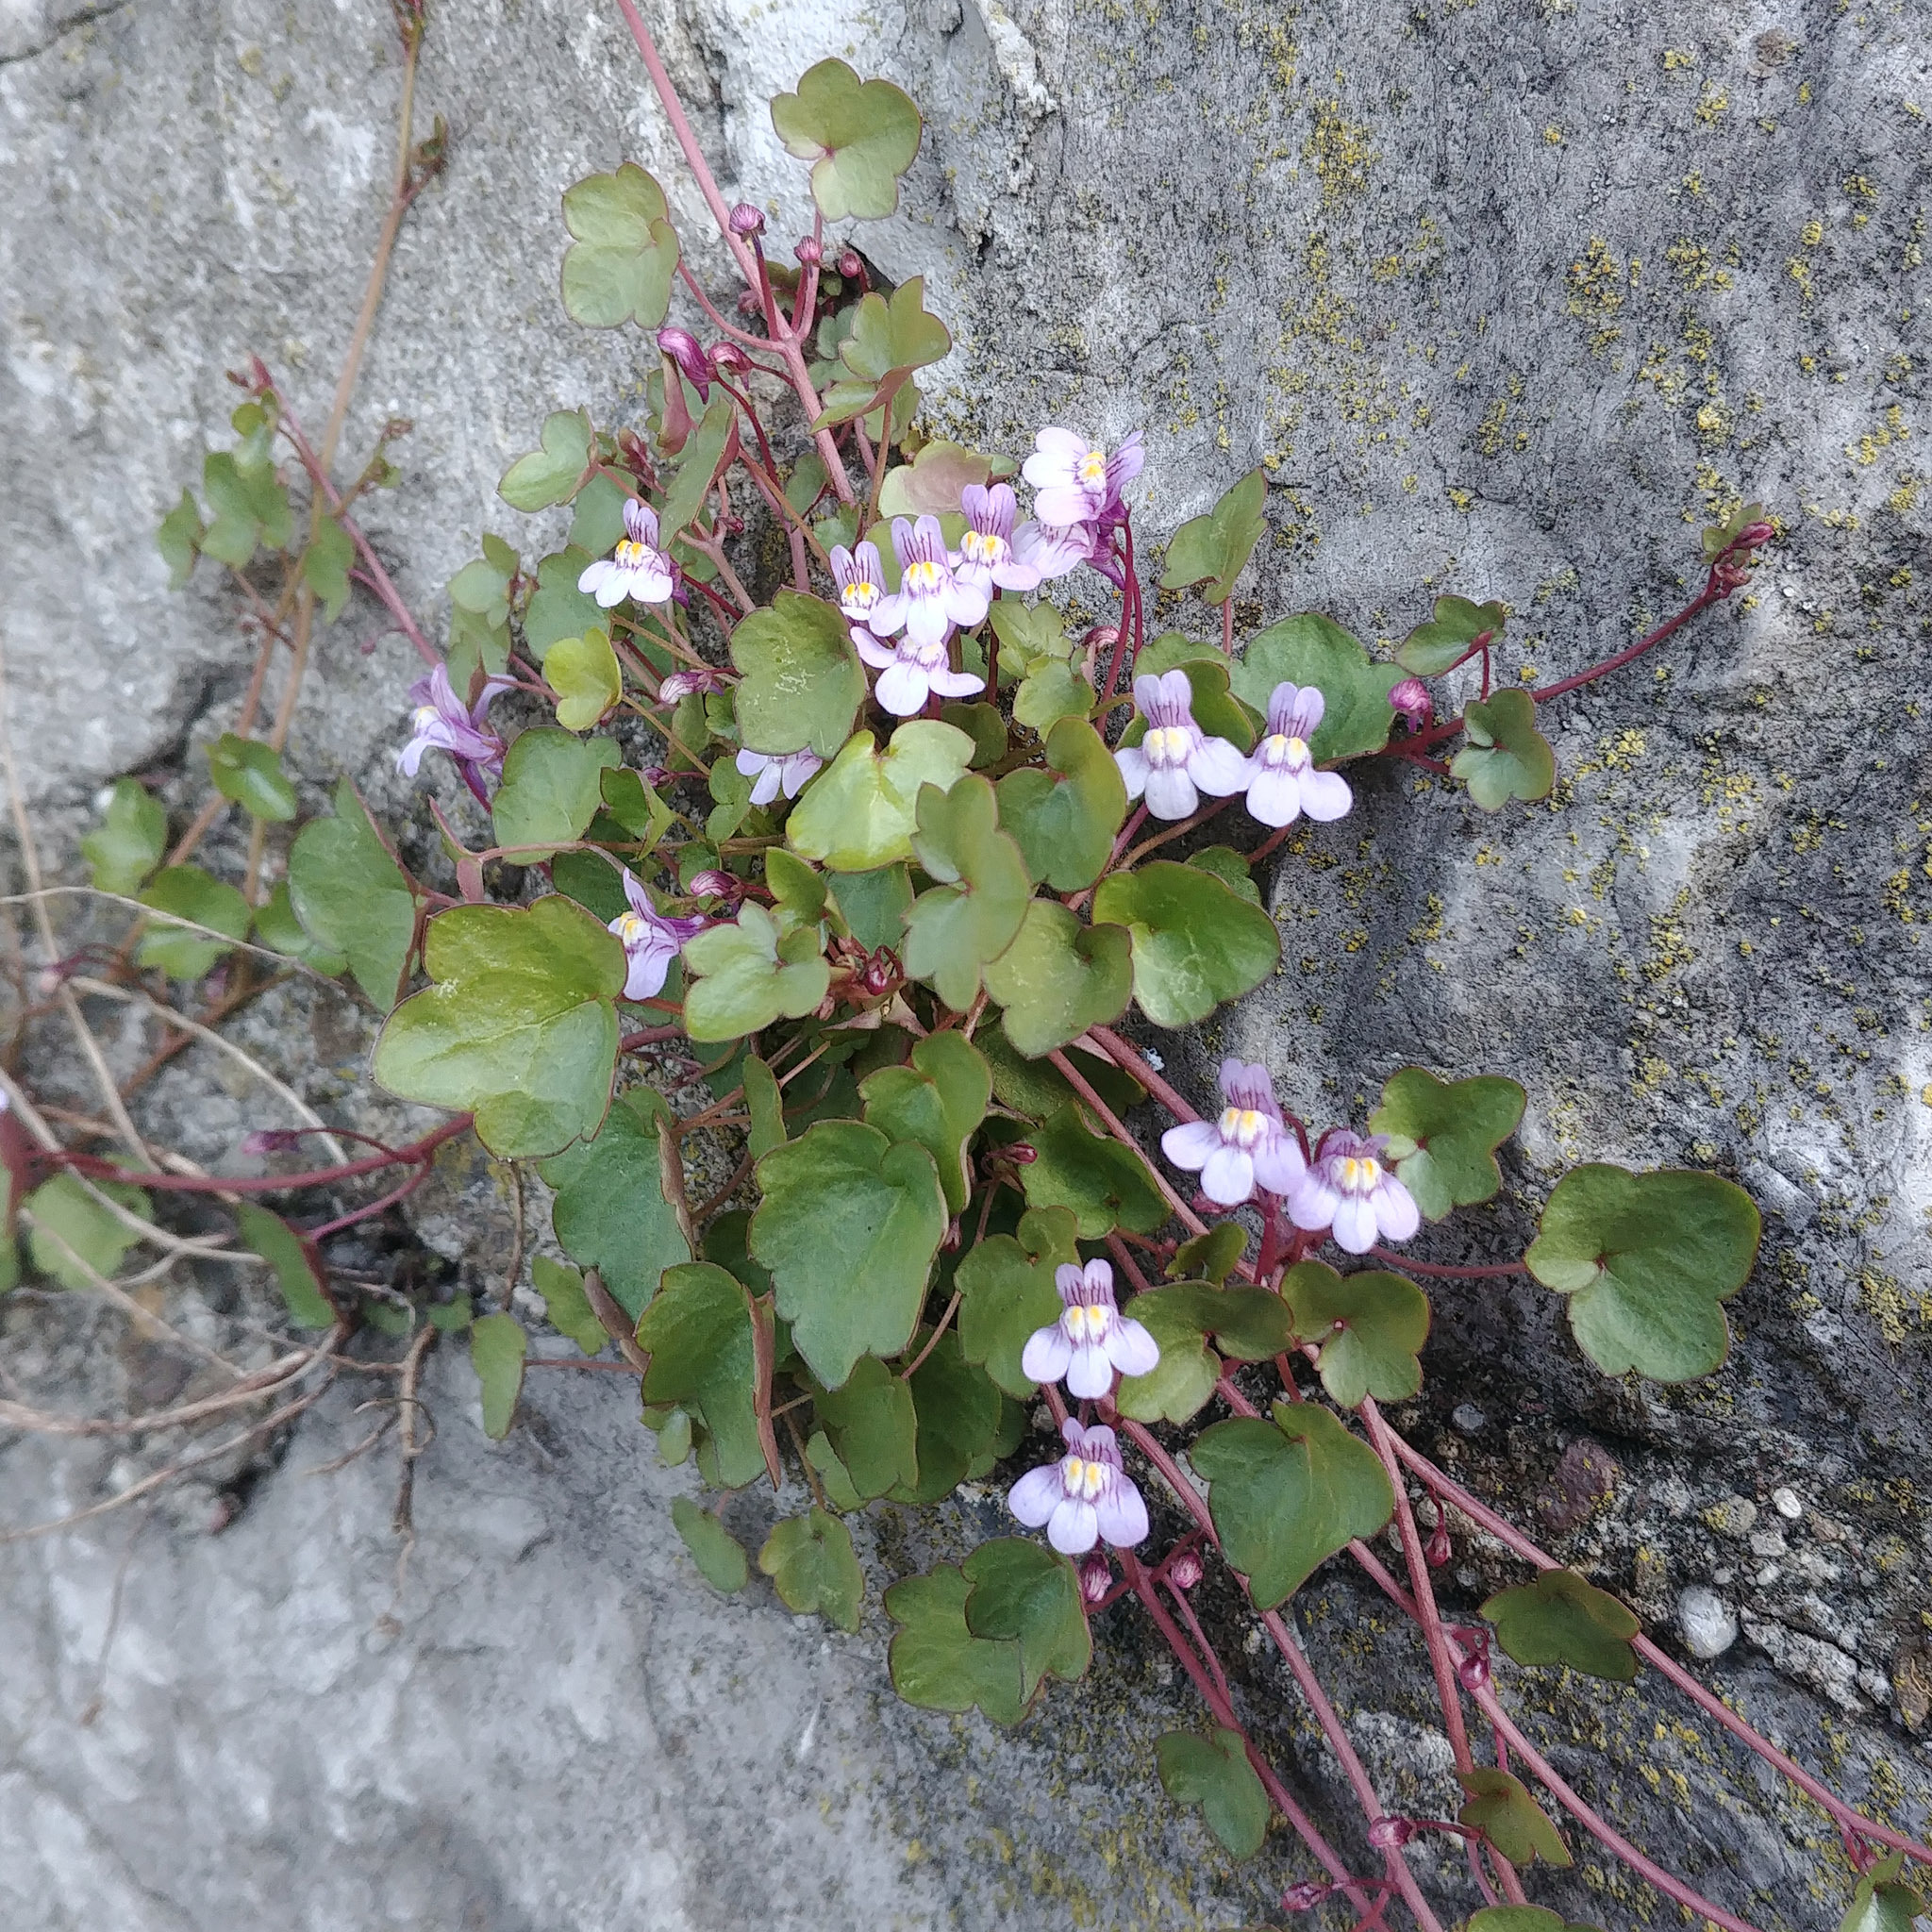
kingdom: Plantae
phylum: Tracheophyta
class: Magnoliopsida
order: Lamiales
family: Plantaginaceae
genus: Cymbalaria
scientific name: Cymbalaria muralis
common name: Ivy-leaved toadflax
